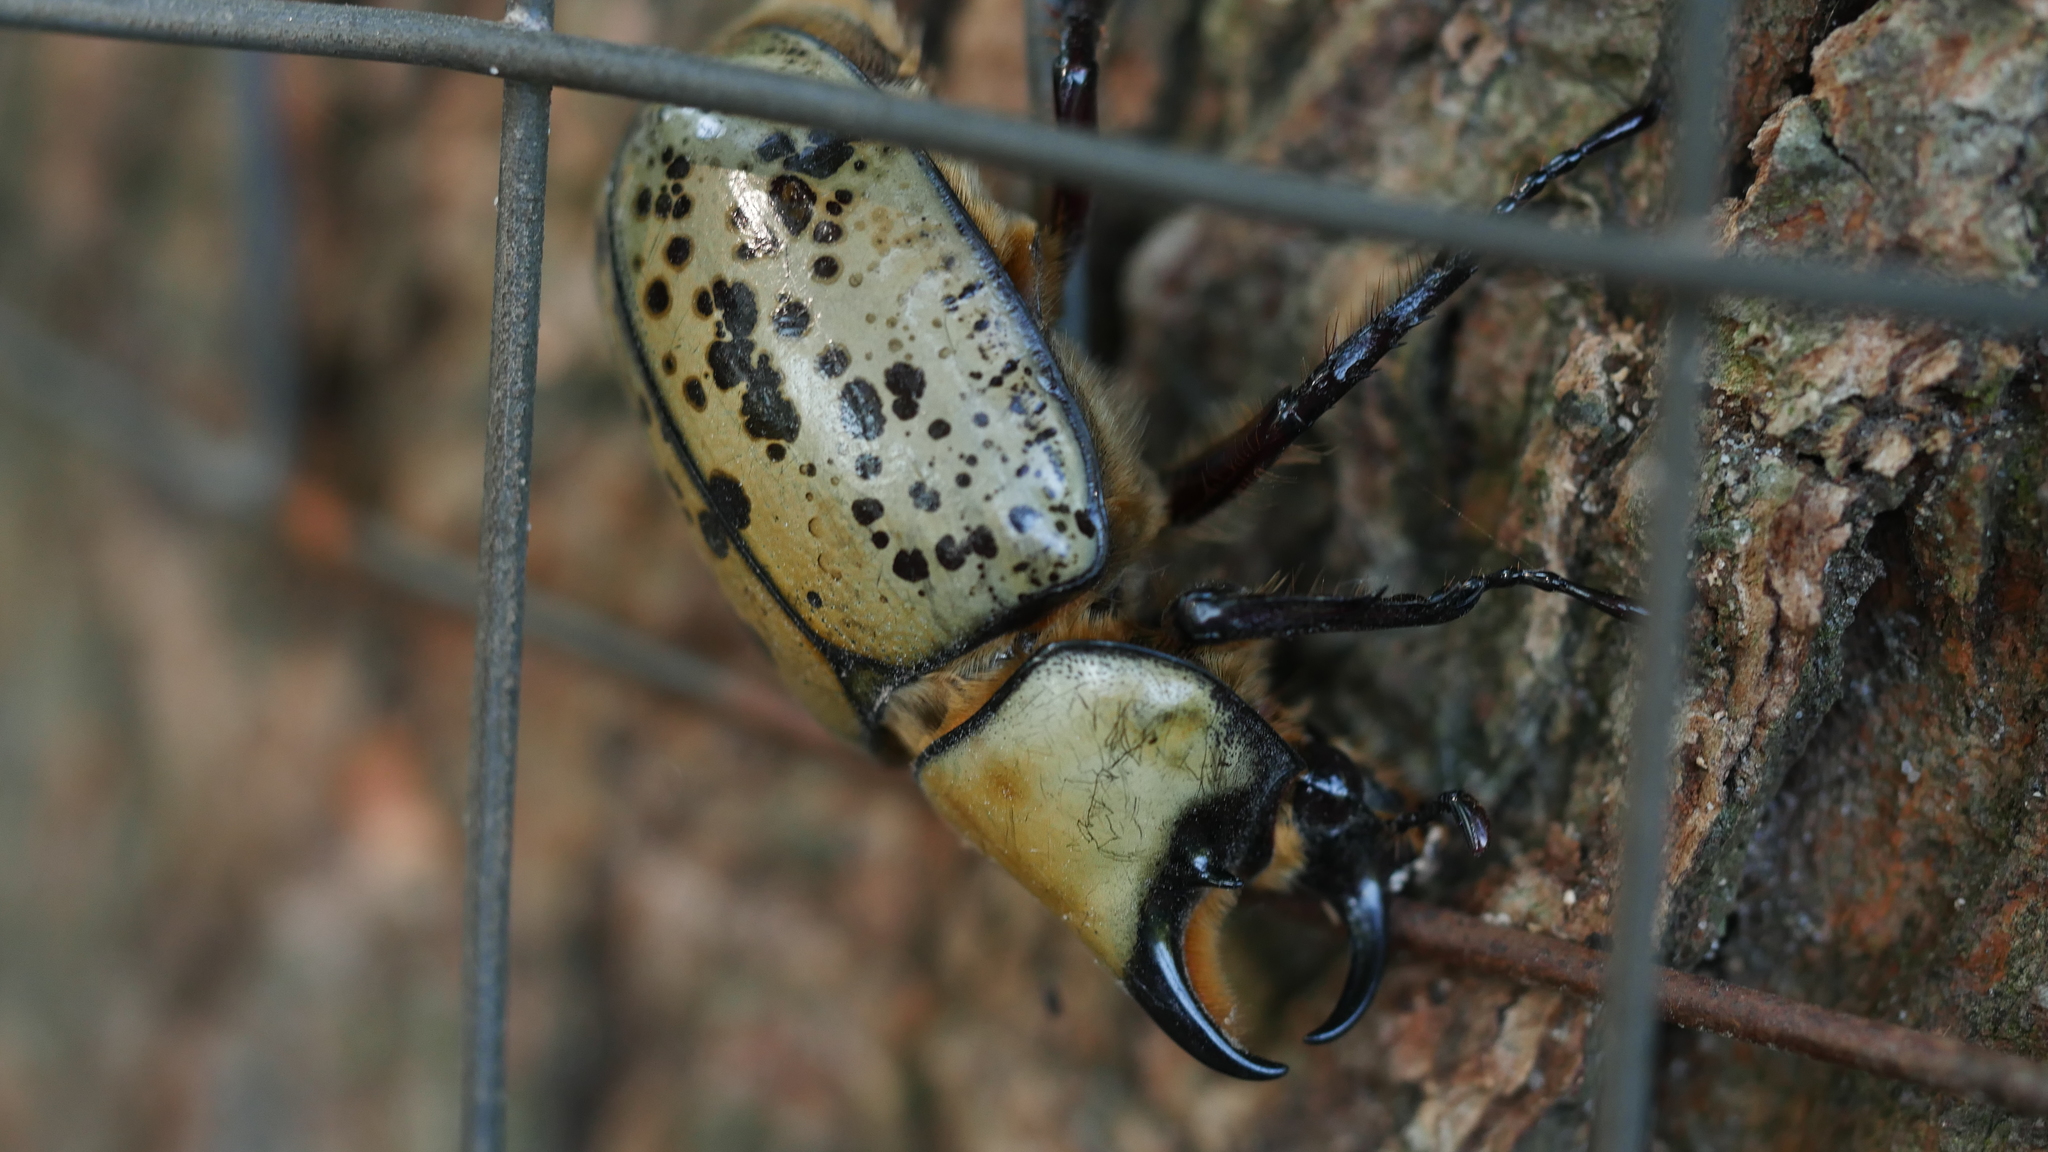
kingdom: Animalia
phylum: Arthropoda
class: Insecta
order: Coleoptera
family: Scarabaeidae
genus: Dynastes
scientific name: Dynastes tityus
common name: Eastern hercules beetle
